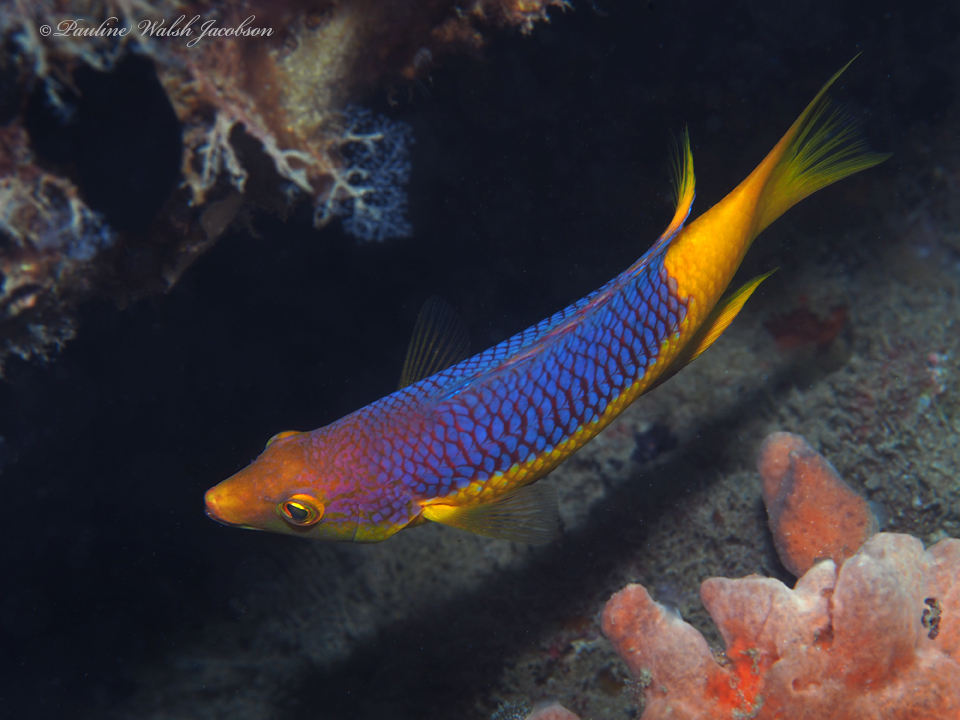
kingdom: Animalia
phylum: Chordata
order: Perciformes
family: Labridae
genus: Bodianus
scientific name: Bodianus rufus
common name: Spanish hogfish
